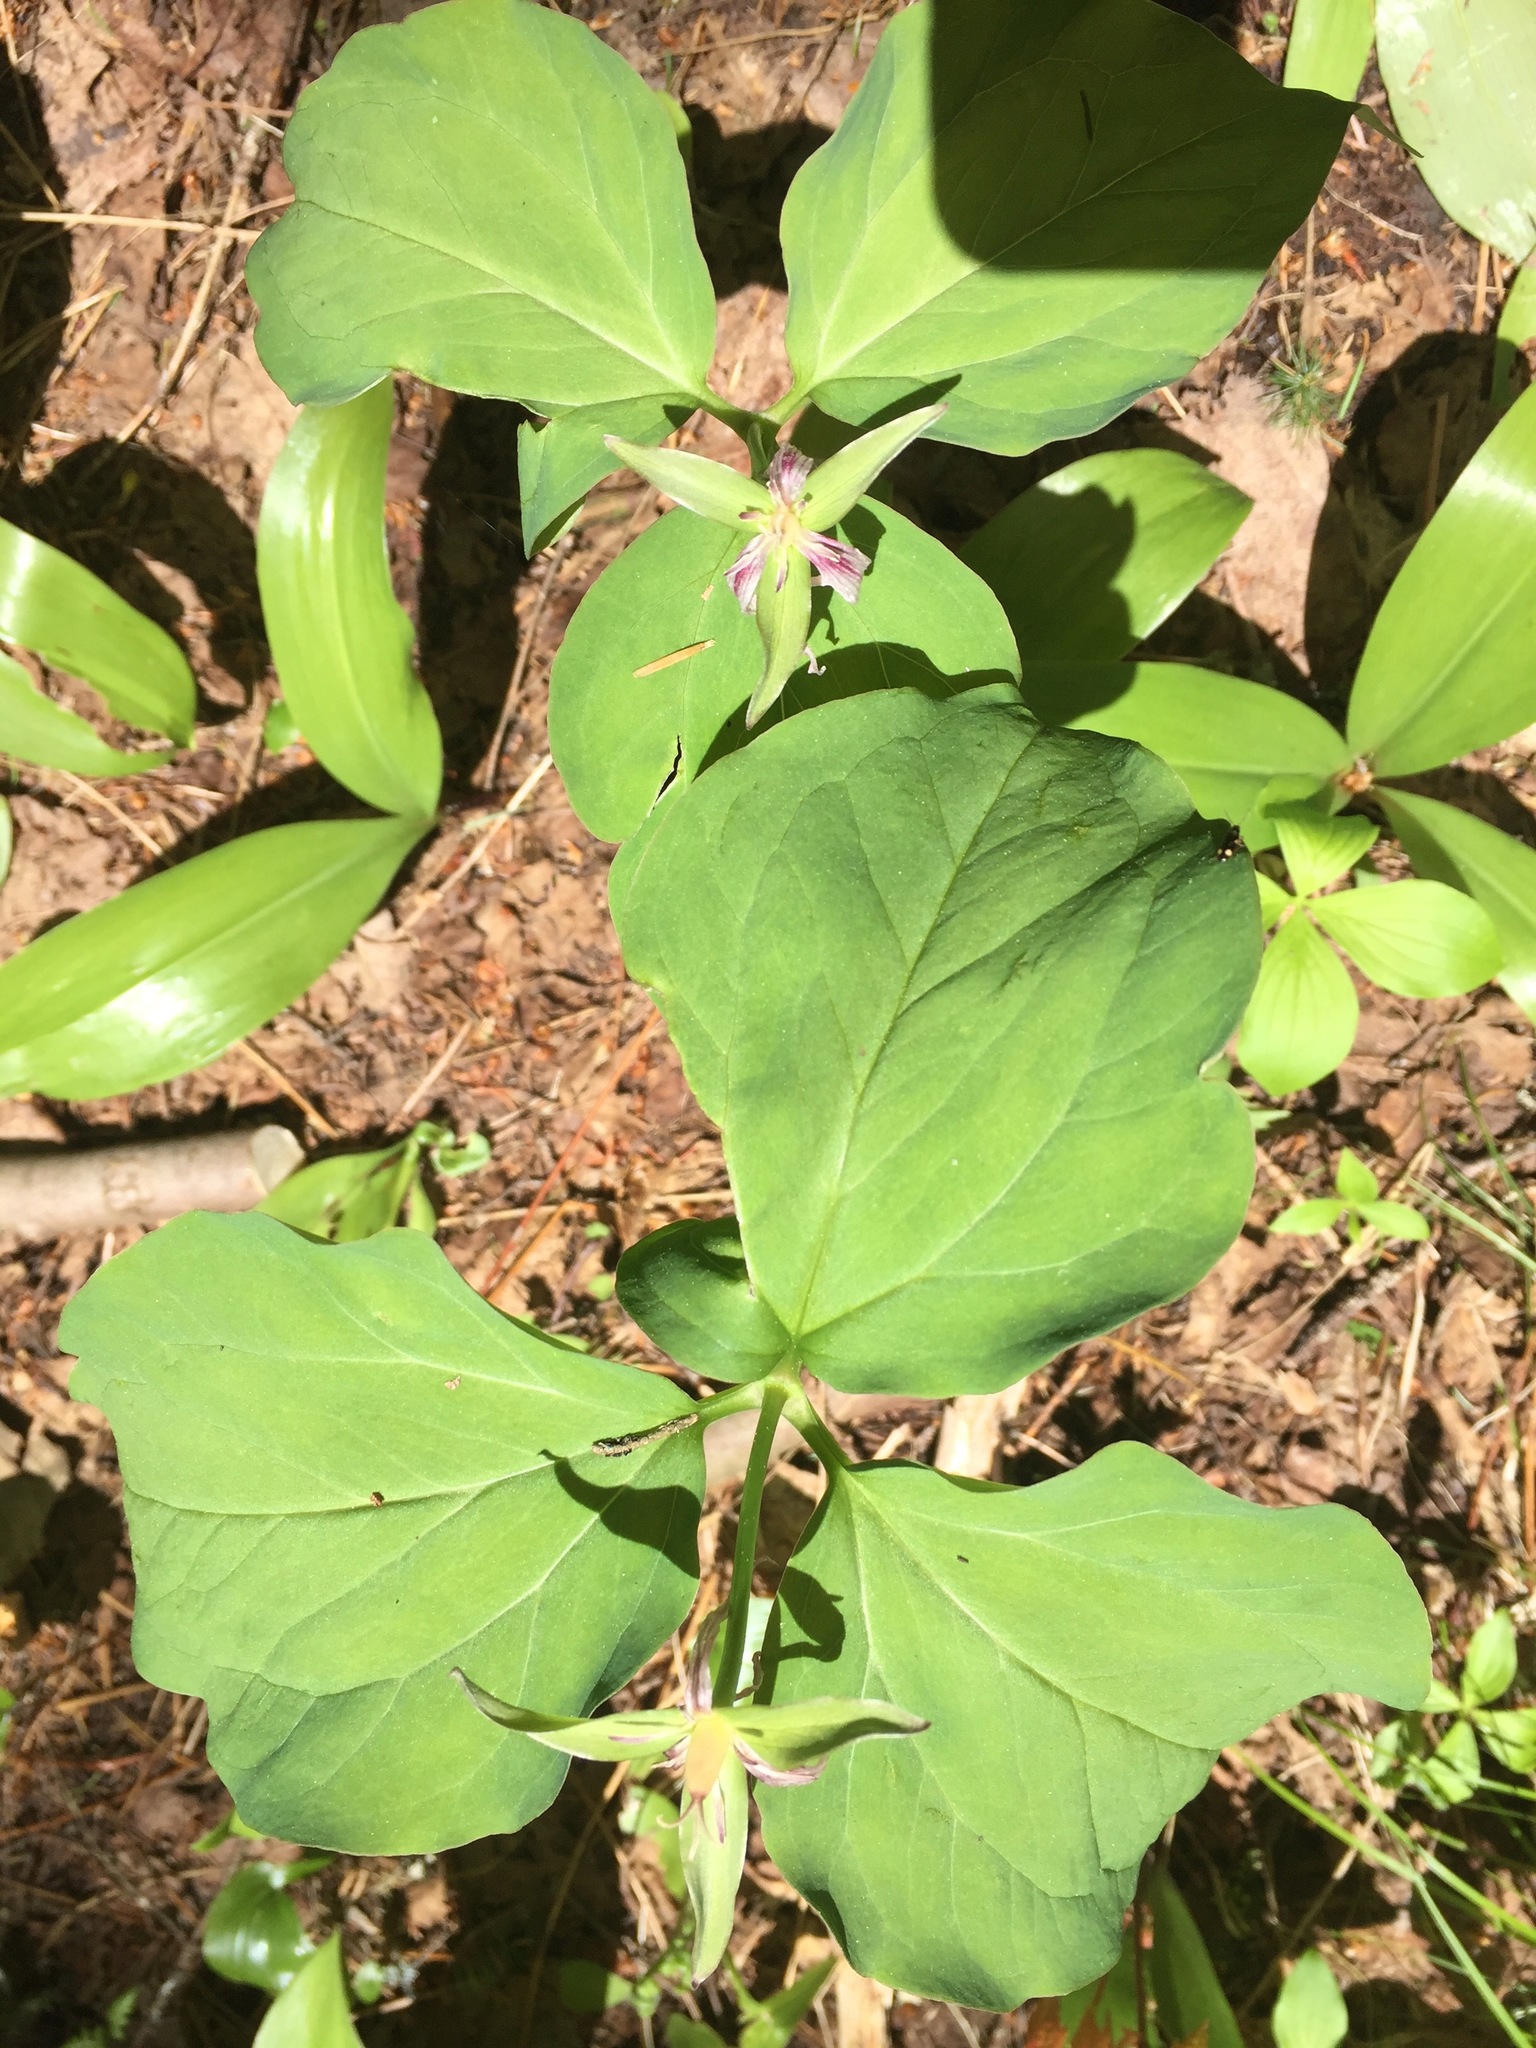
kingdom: Plantae
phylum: Tracheophyta
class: Liliopsida
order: Liliales
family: Melanthiaceae
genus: Trillium
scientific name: Trillium undulatum
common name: Paint trillium
